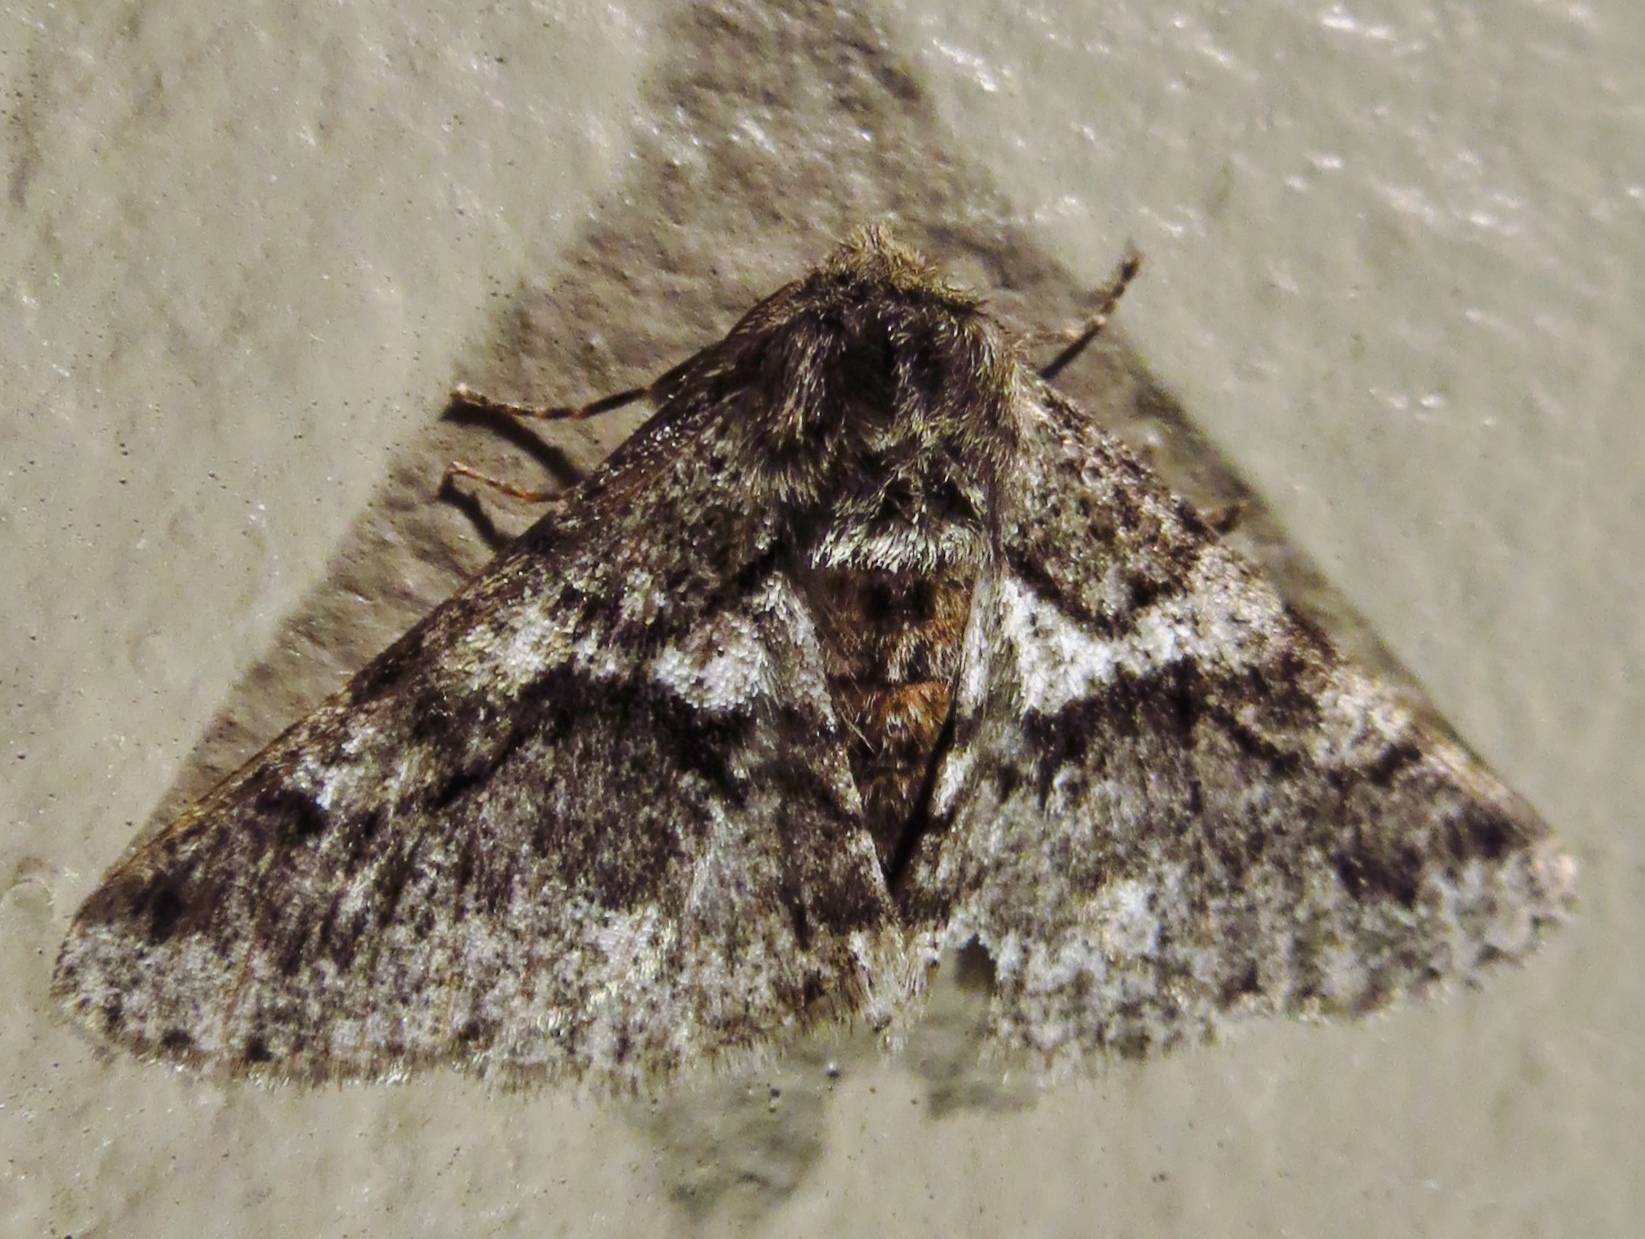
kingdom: Animalia
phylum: Arthropoda
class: Insecta
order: Lepidoptera
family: Geometridae
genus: Lycia
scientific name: Lycia ypsilon
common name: Wooly gray
